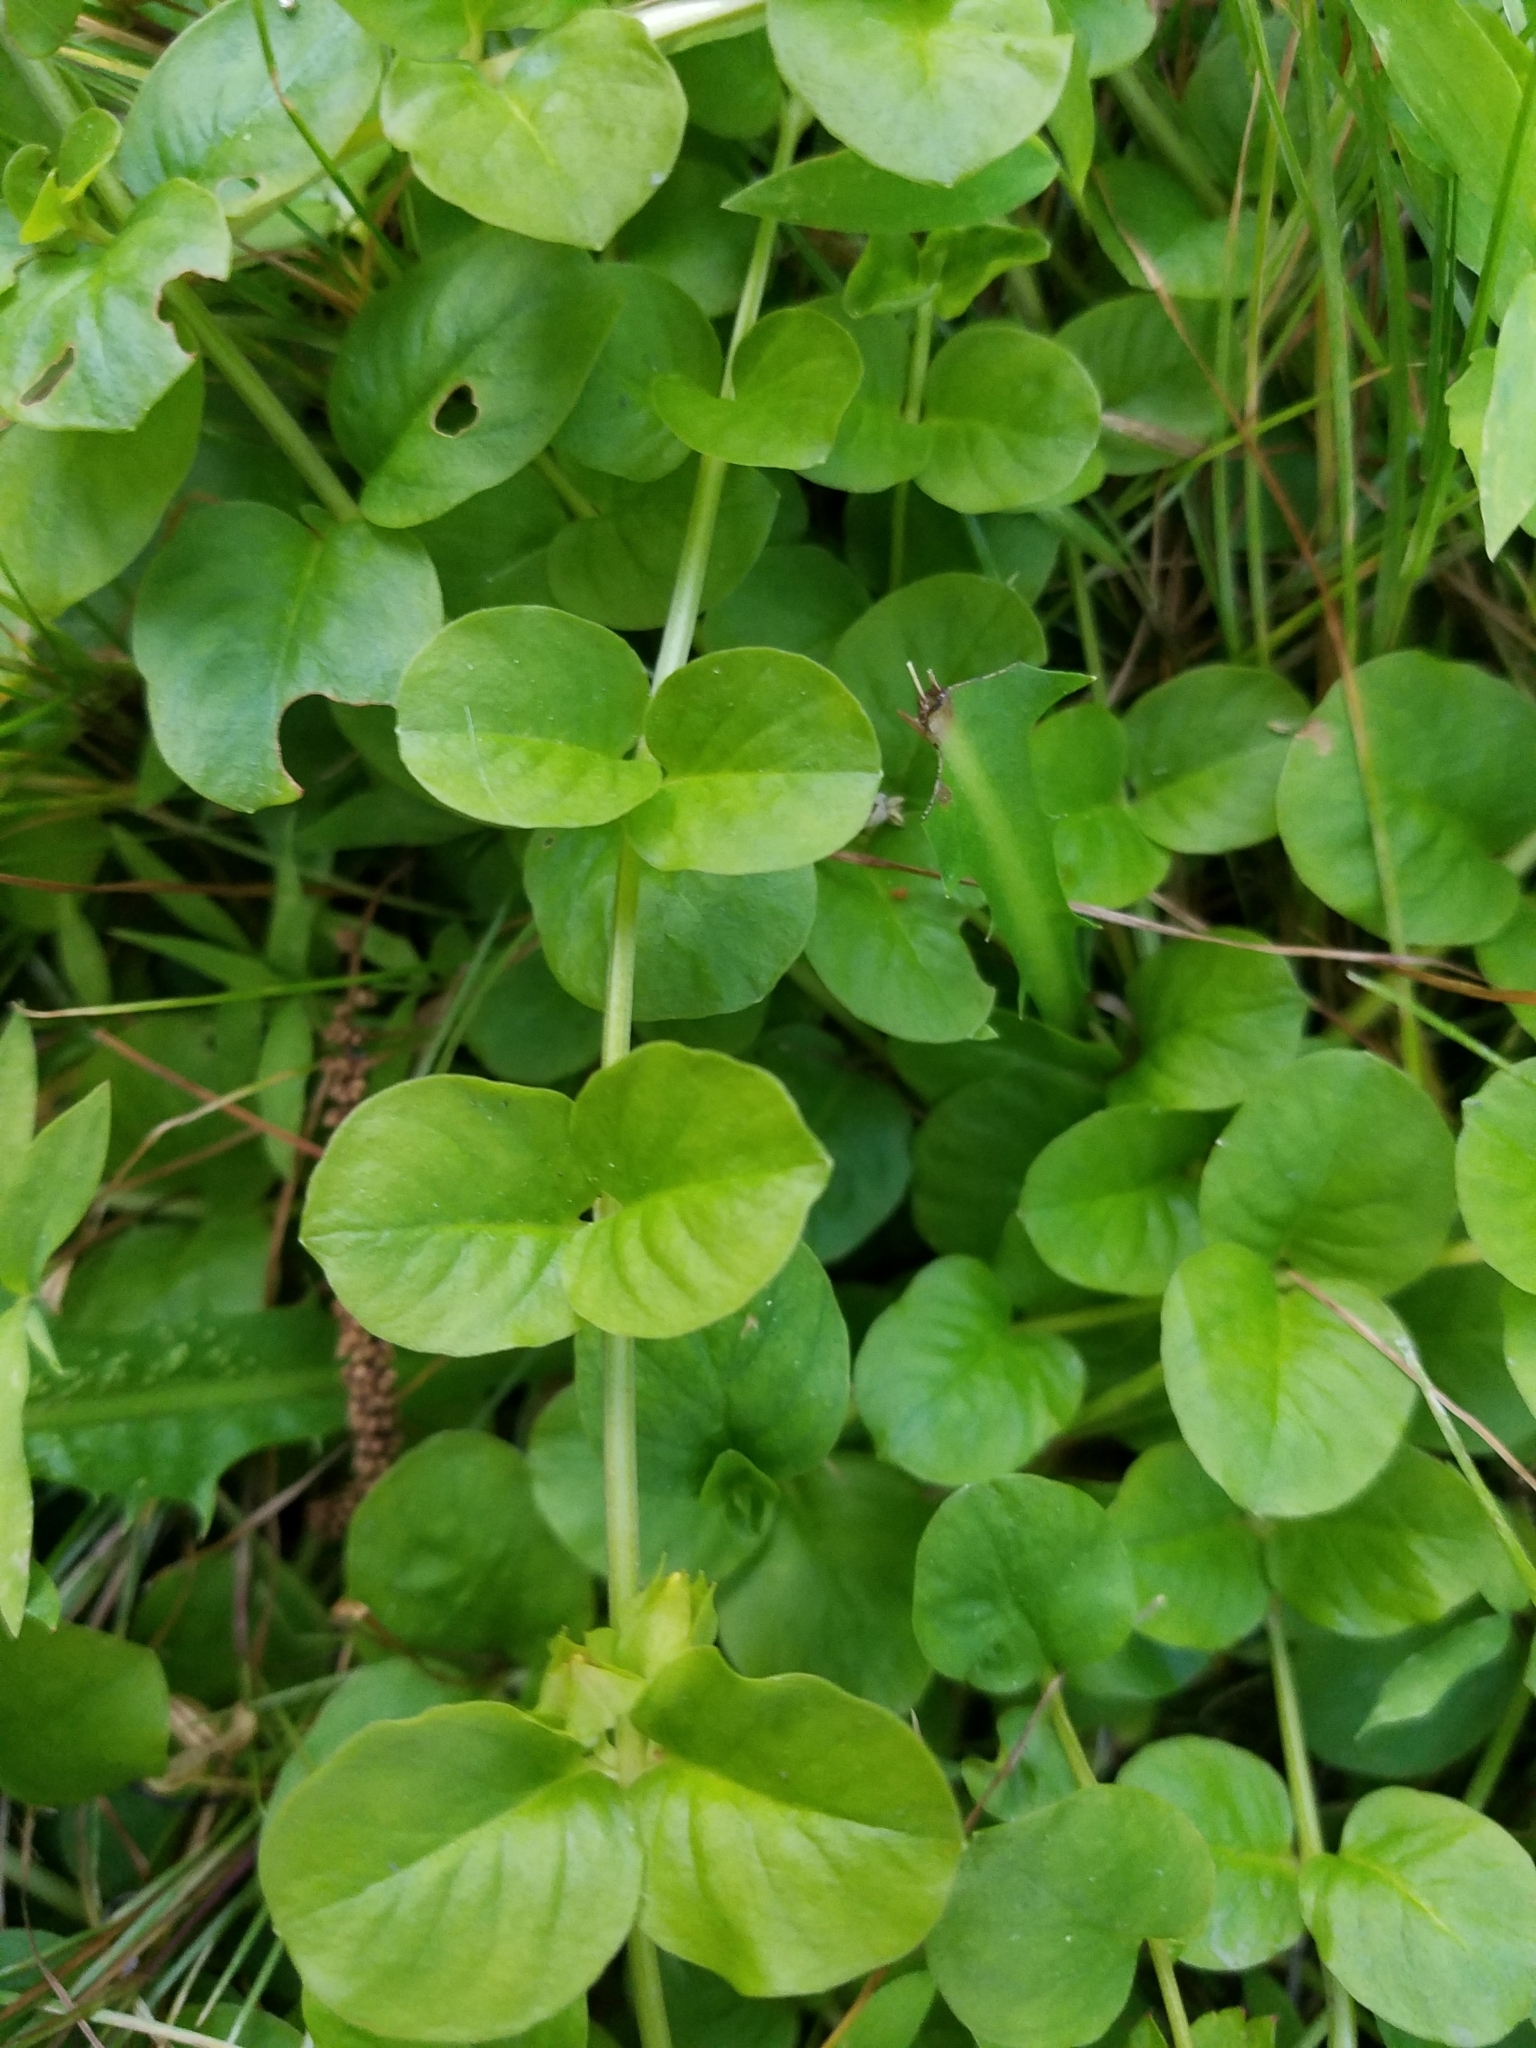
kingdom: Plantae
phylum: Tracheophyta
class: Magnoliopsida
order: Ericales
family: Primulaceae
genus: Lysimachia
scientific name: Lysimachia nummularia
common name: Moneywort
